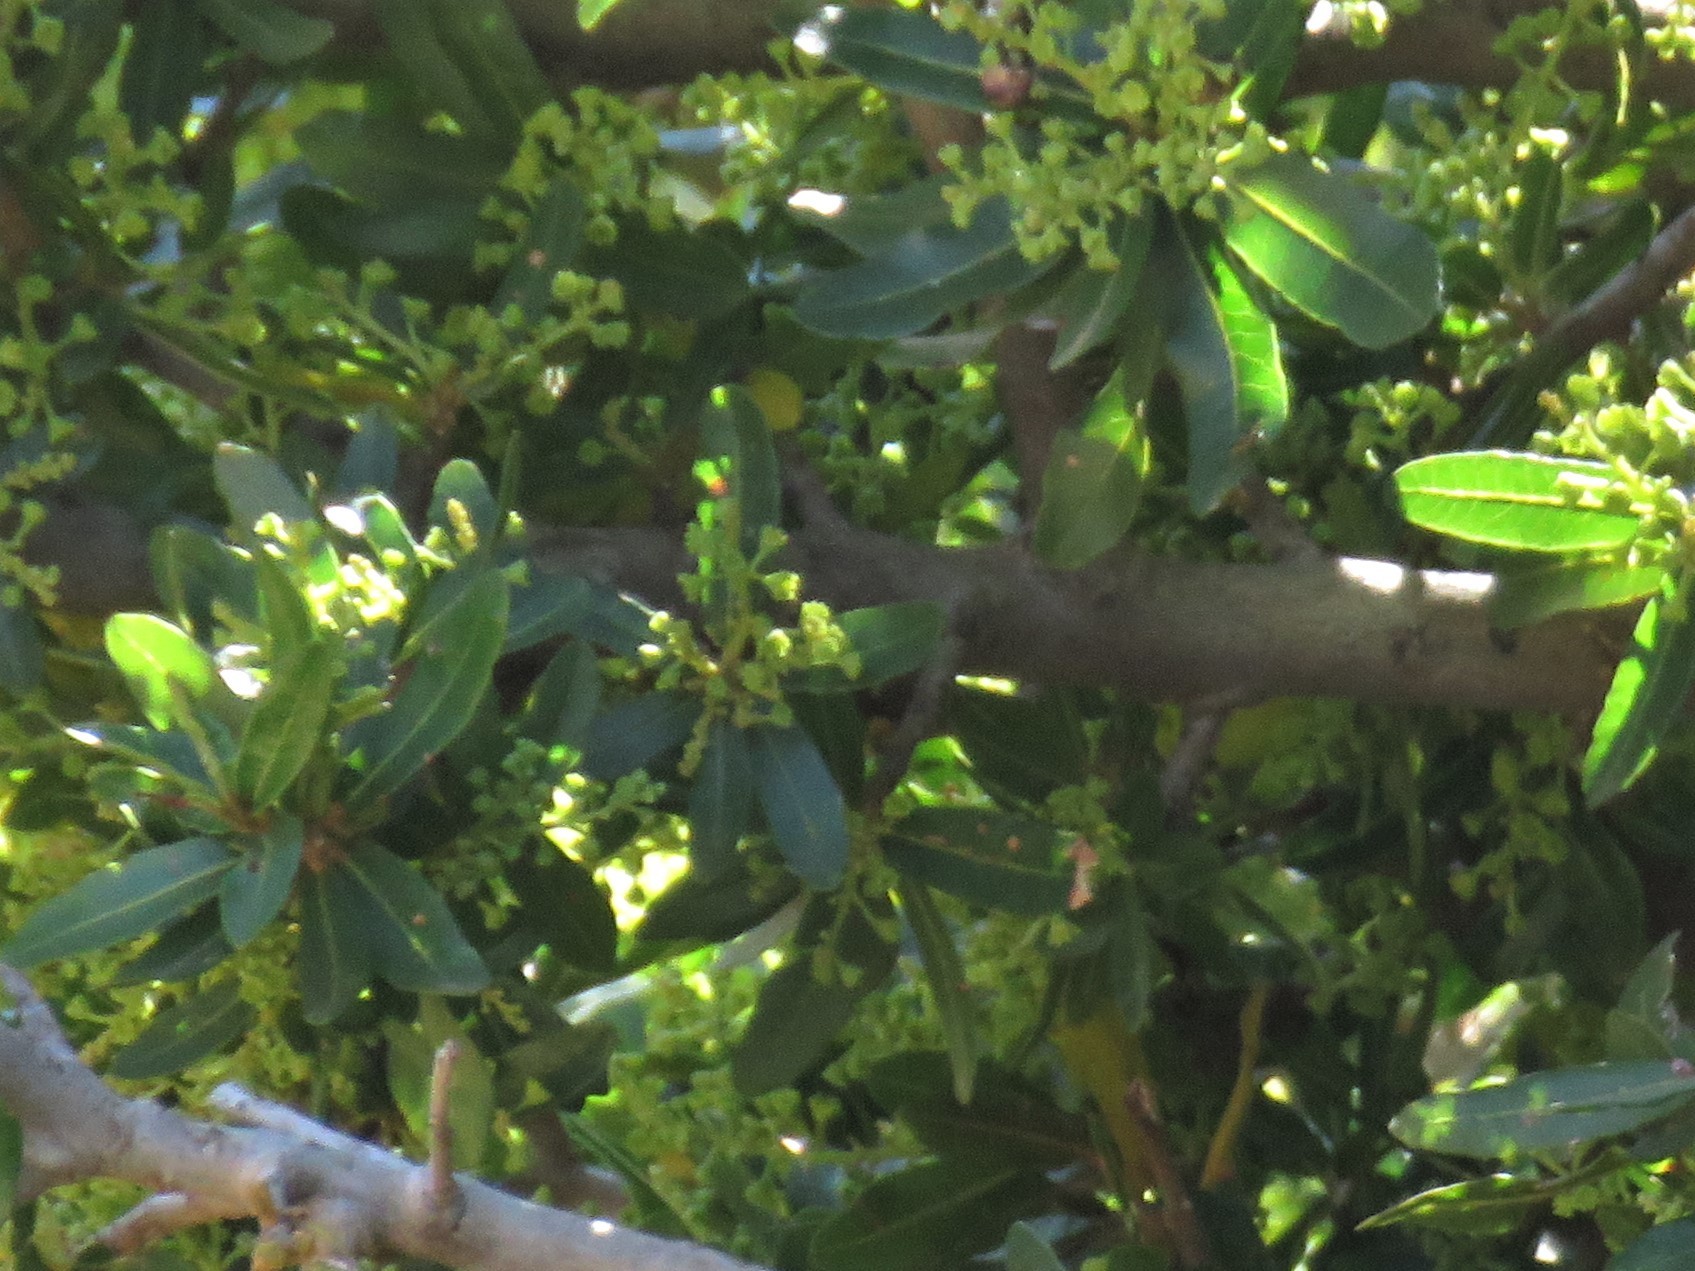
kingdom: Plantae
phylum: Tracheophyta
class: Magnoliopsida
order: Sapindales
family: Sapindaceae
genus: Pappea
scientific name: Pappea capensis
